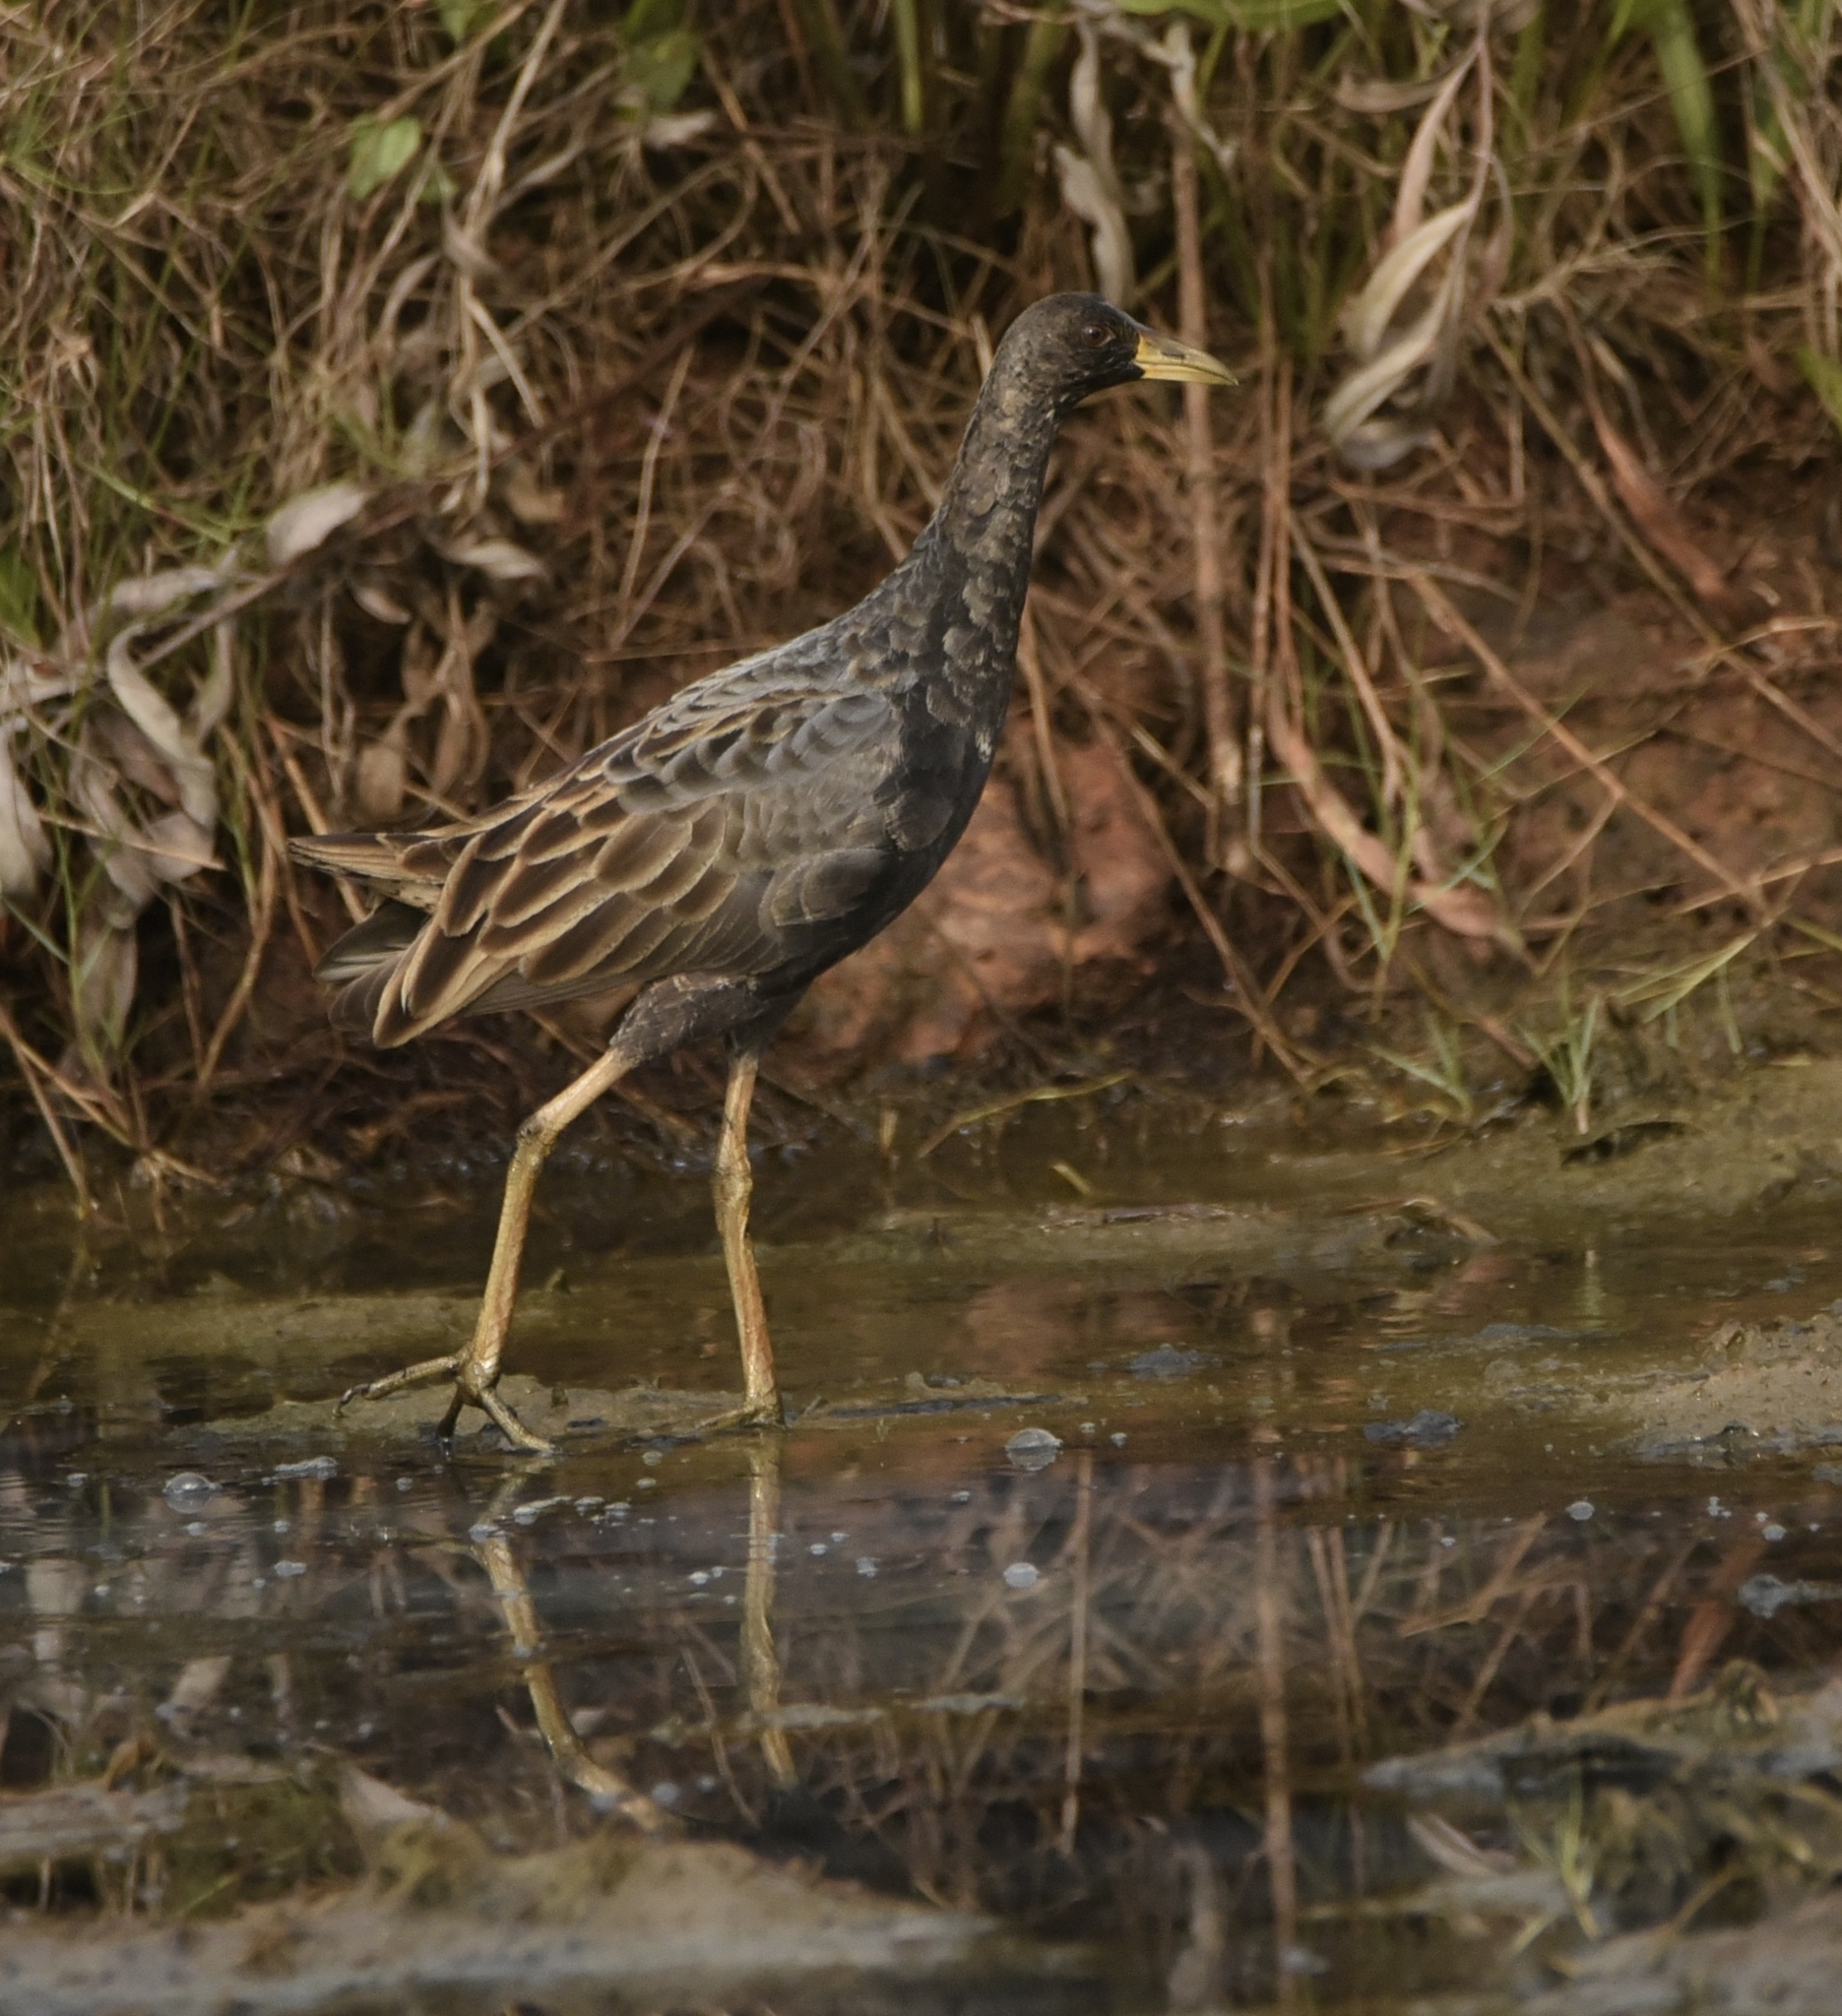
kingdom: Animalia
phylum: Chordata
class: Aves
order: Gruiformes
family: Rallidae
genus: Gallicrex
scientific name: Gallicrex cinerea
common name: Watercock
